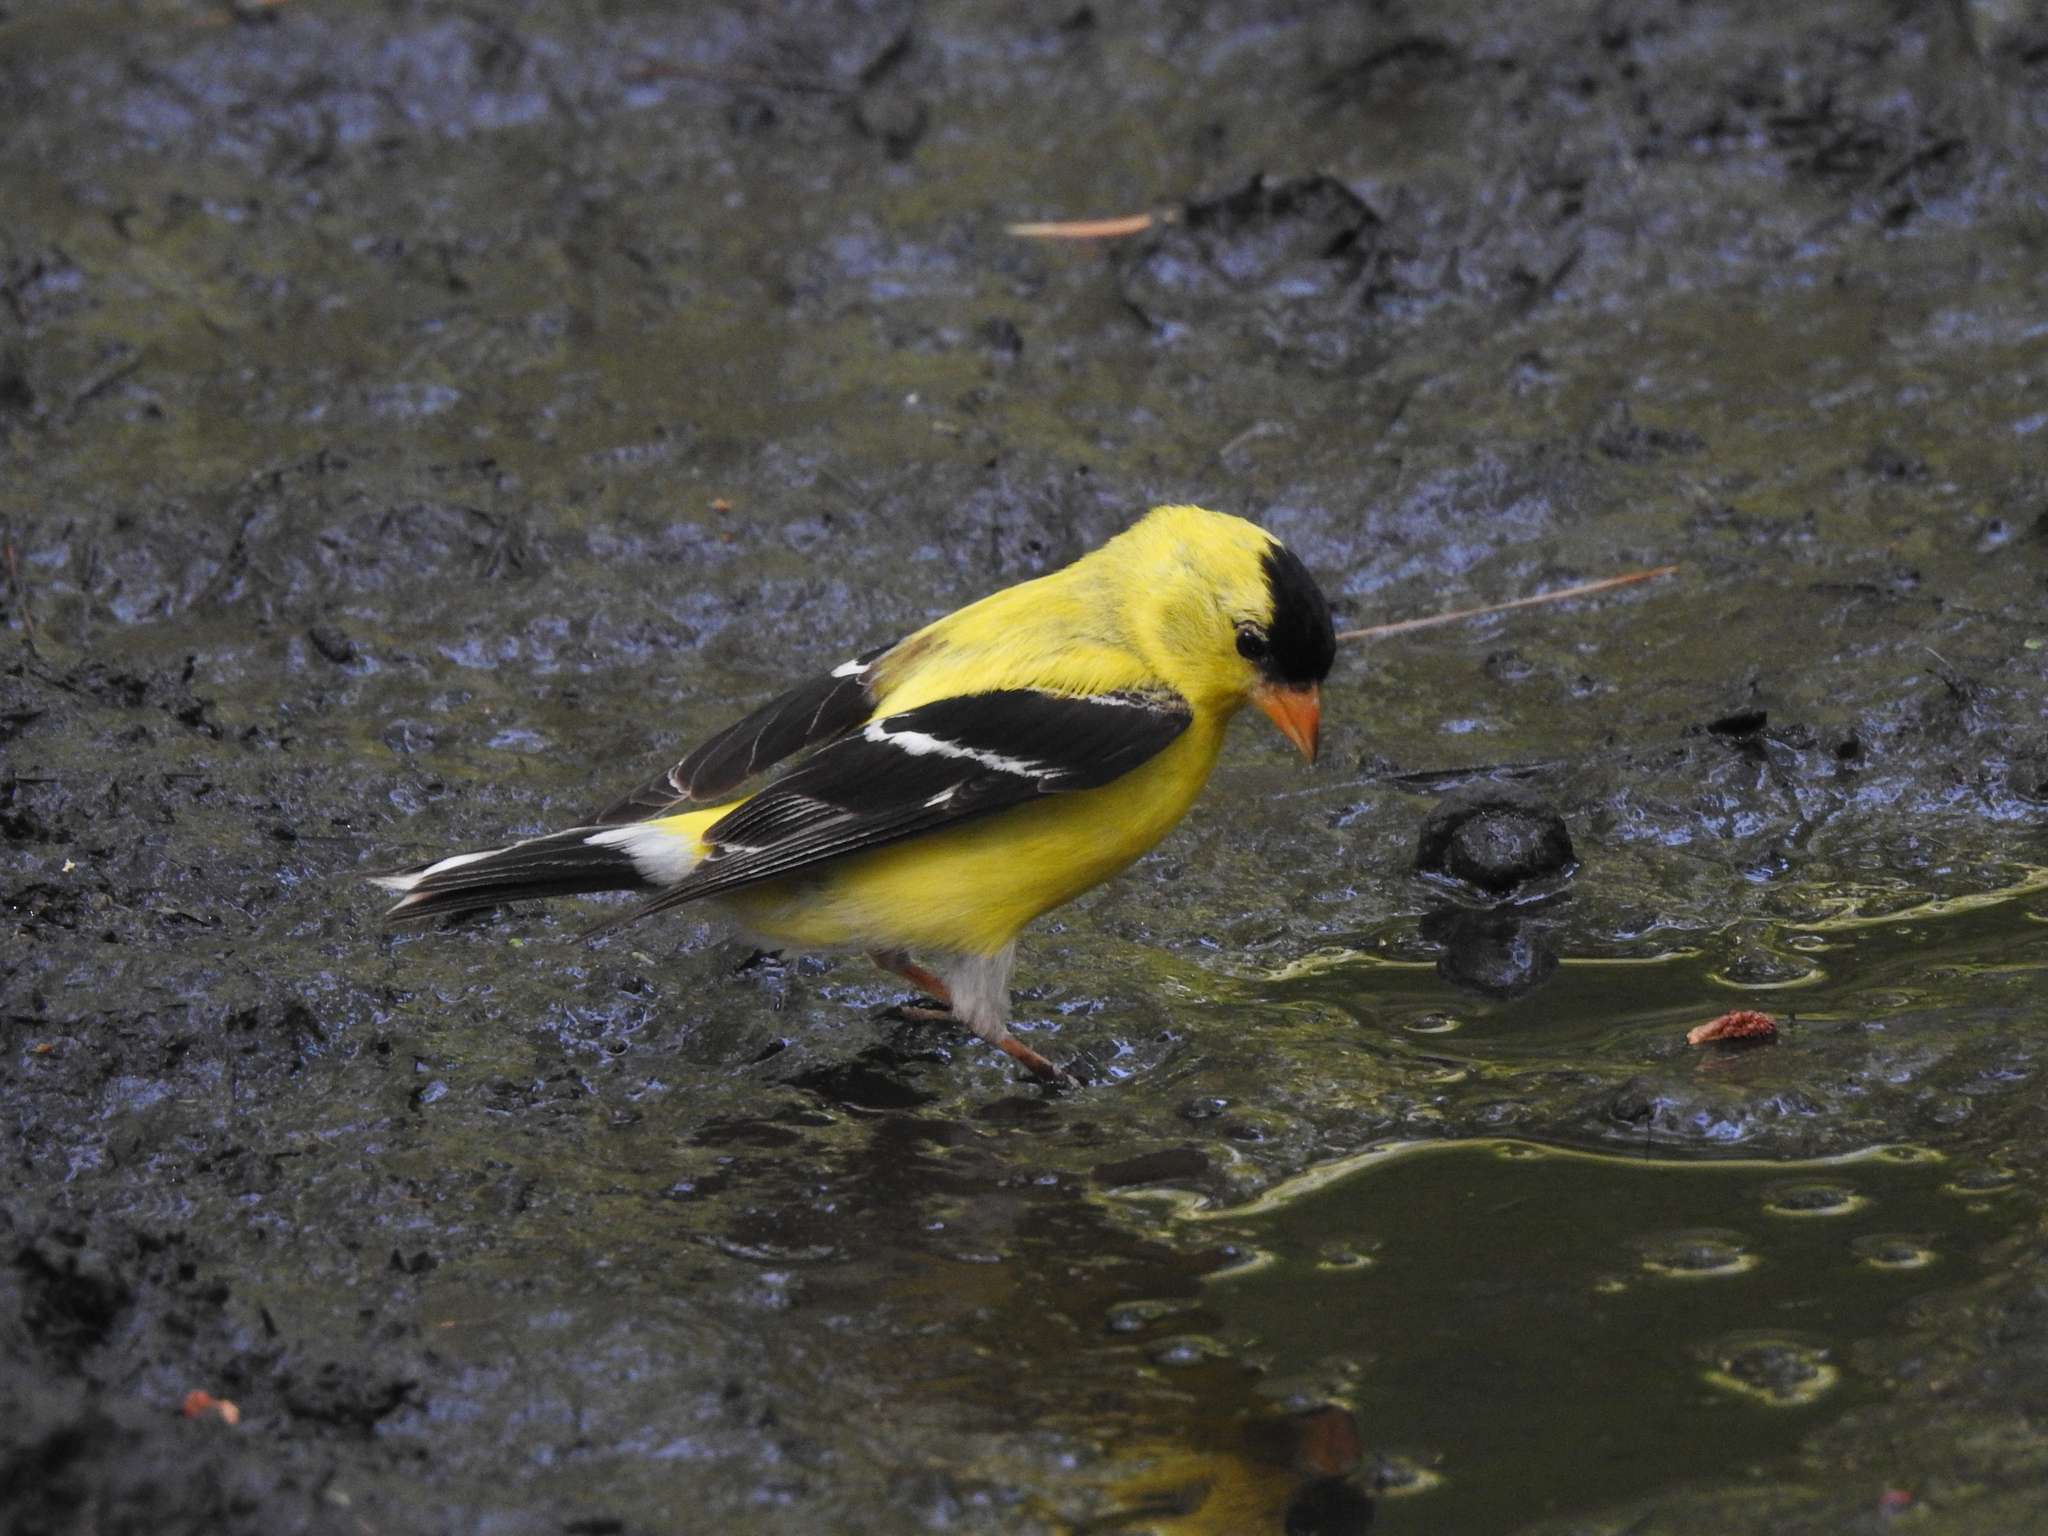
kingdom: Animalia
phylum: Chordata
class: Aves
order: Passeriformes
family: Fringillidae
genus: Spinus
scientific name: Spinus tristis
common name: American goldfinch
